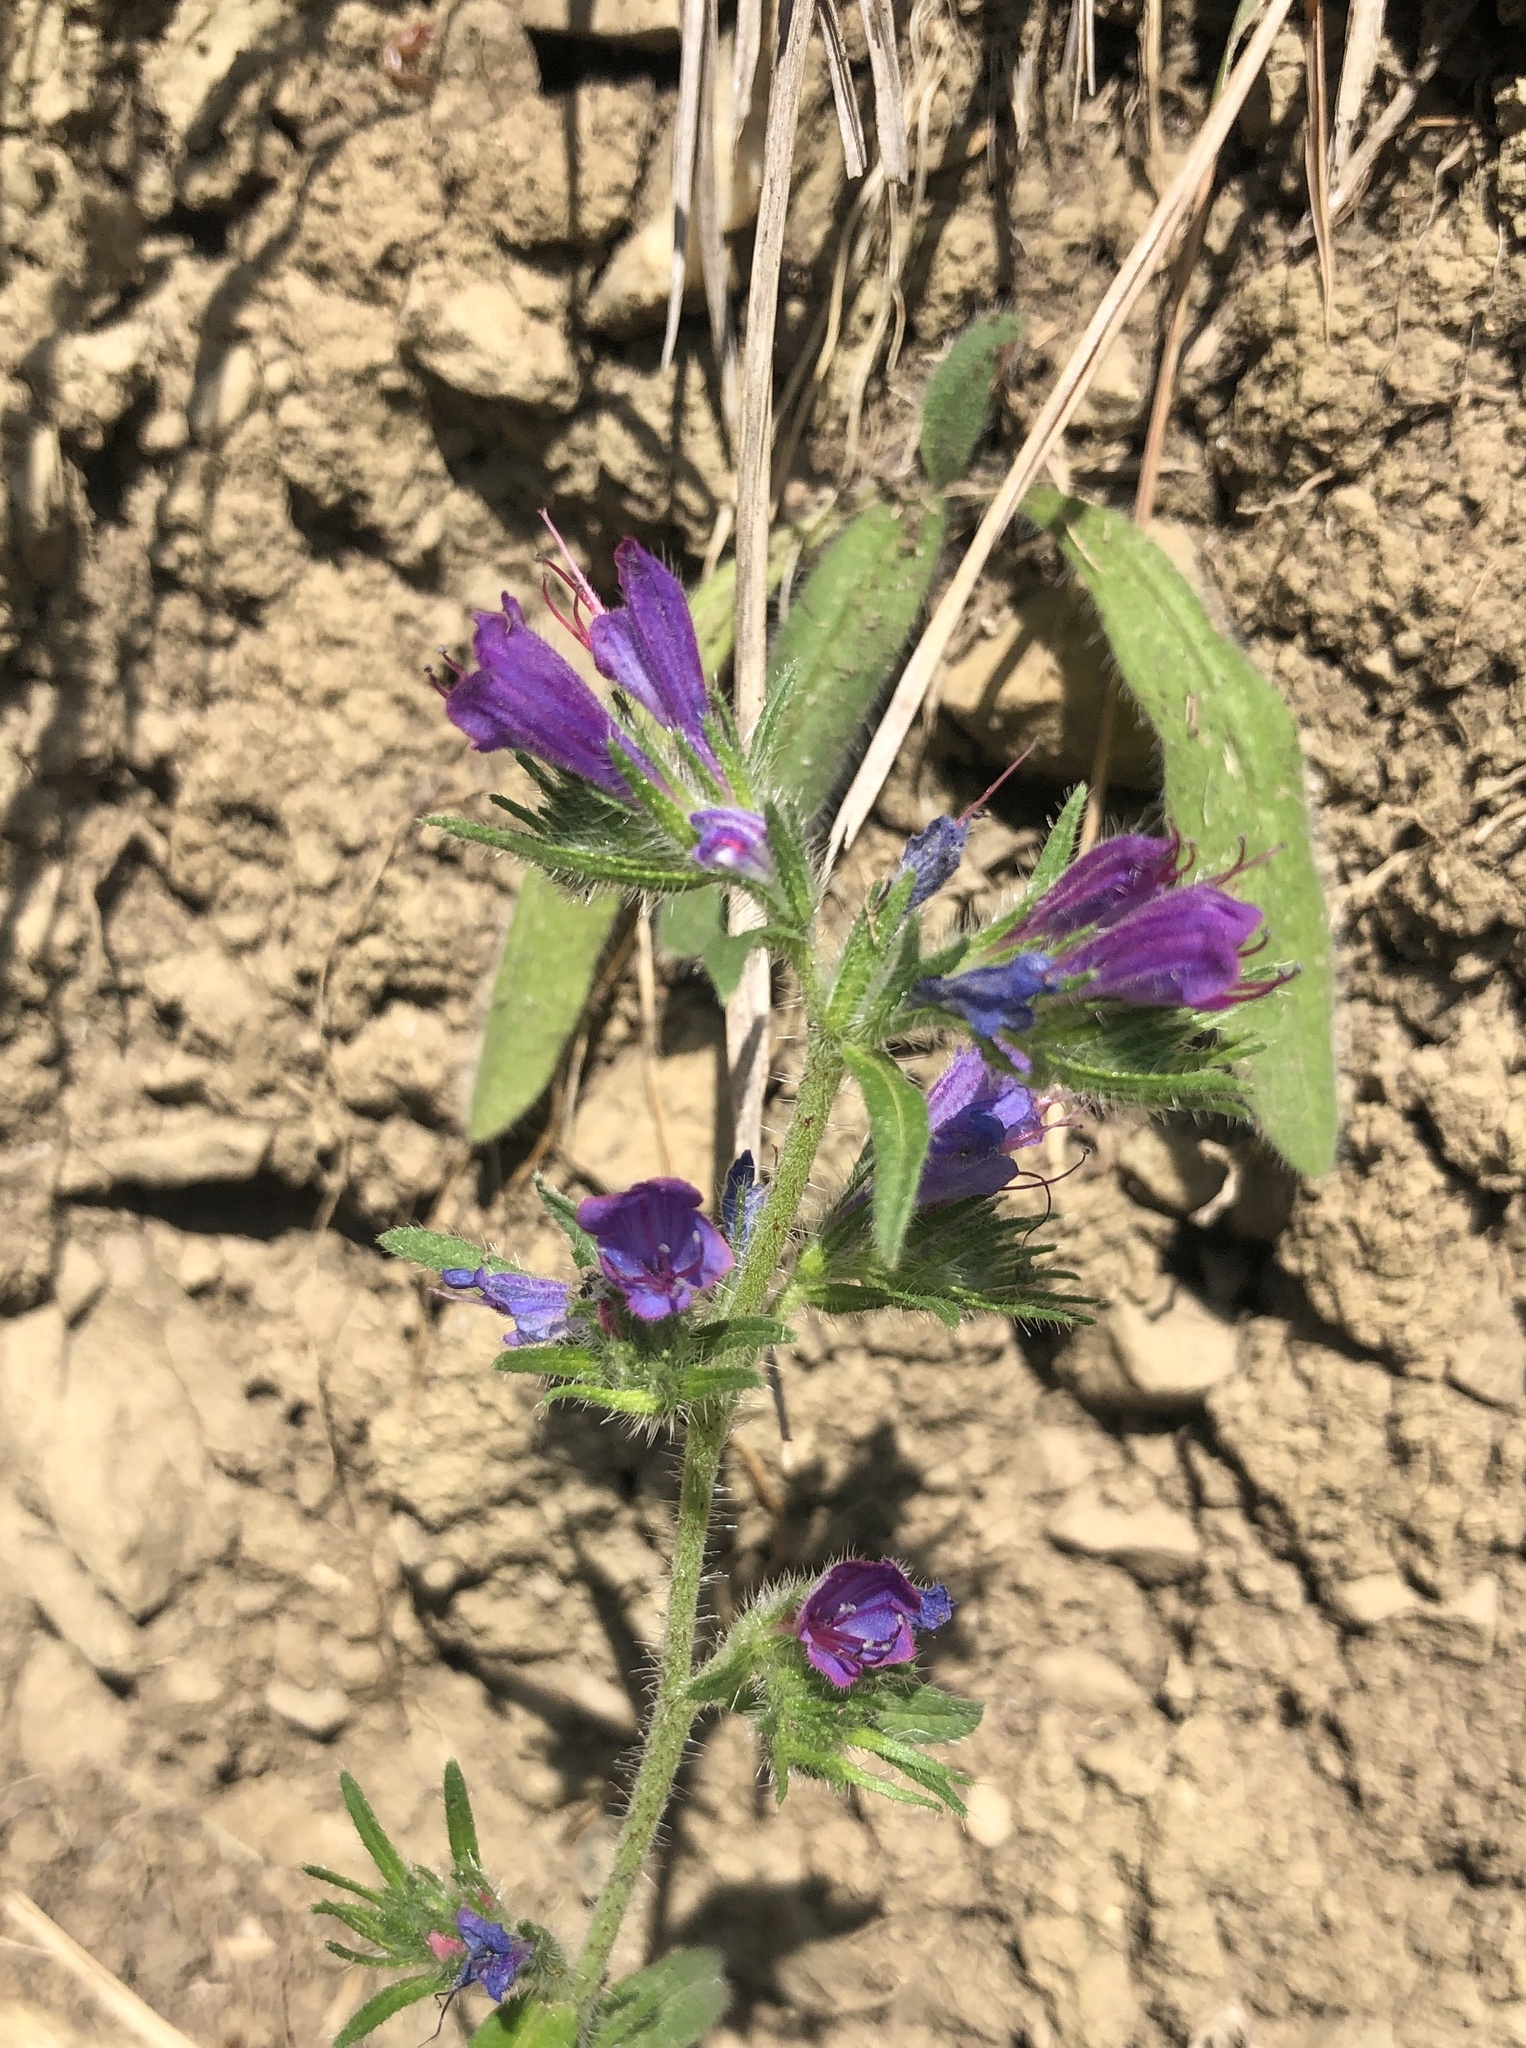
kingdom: Plantae
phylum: Tracheophyta
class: Magnoliopsida
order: Boraginales
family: Boraginaceae
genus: Echium
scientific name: Echium vulgare
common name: Common viper's bugloss
